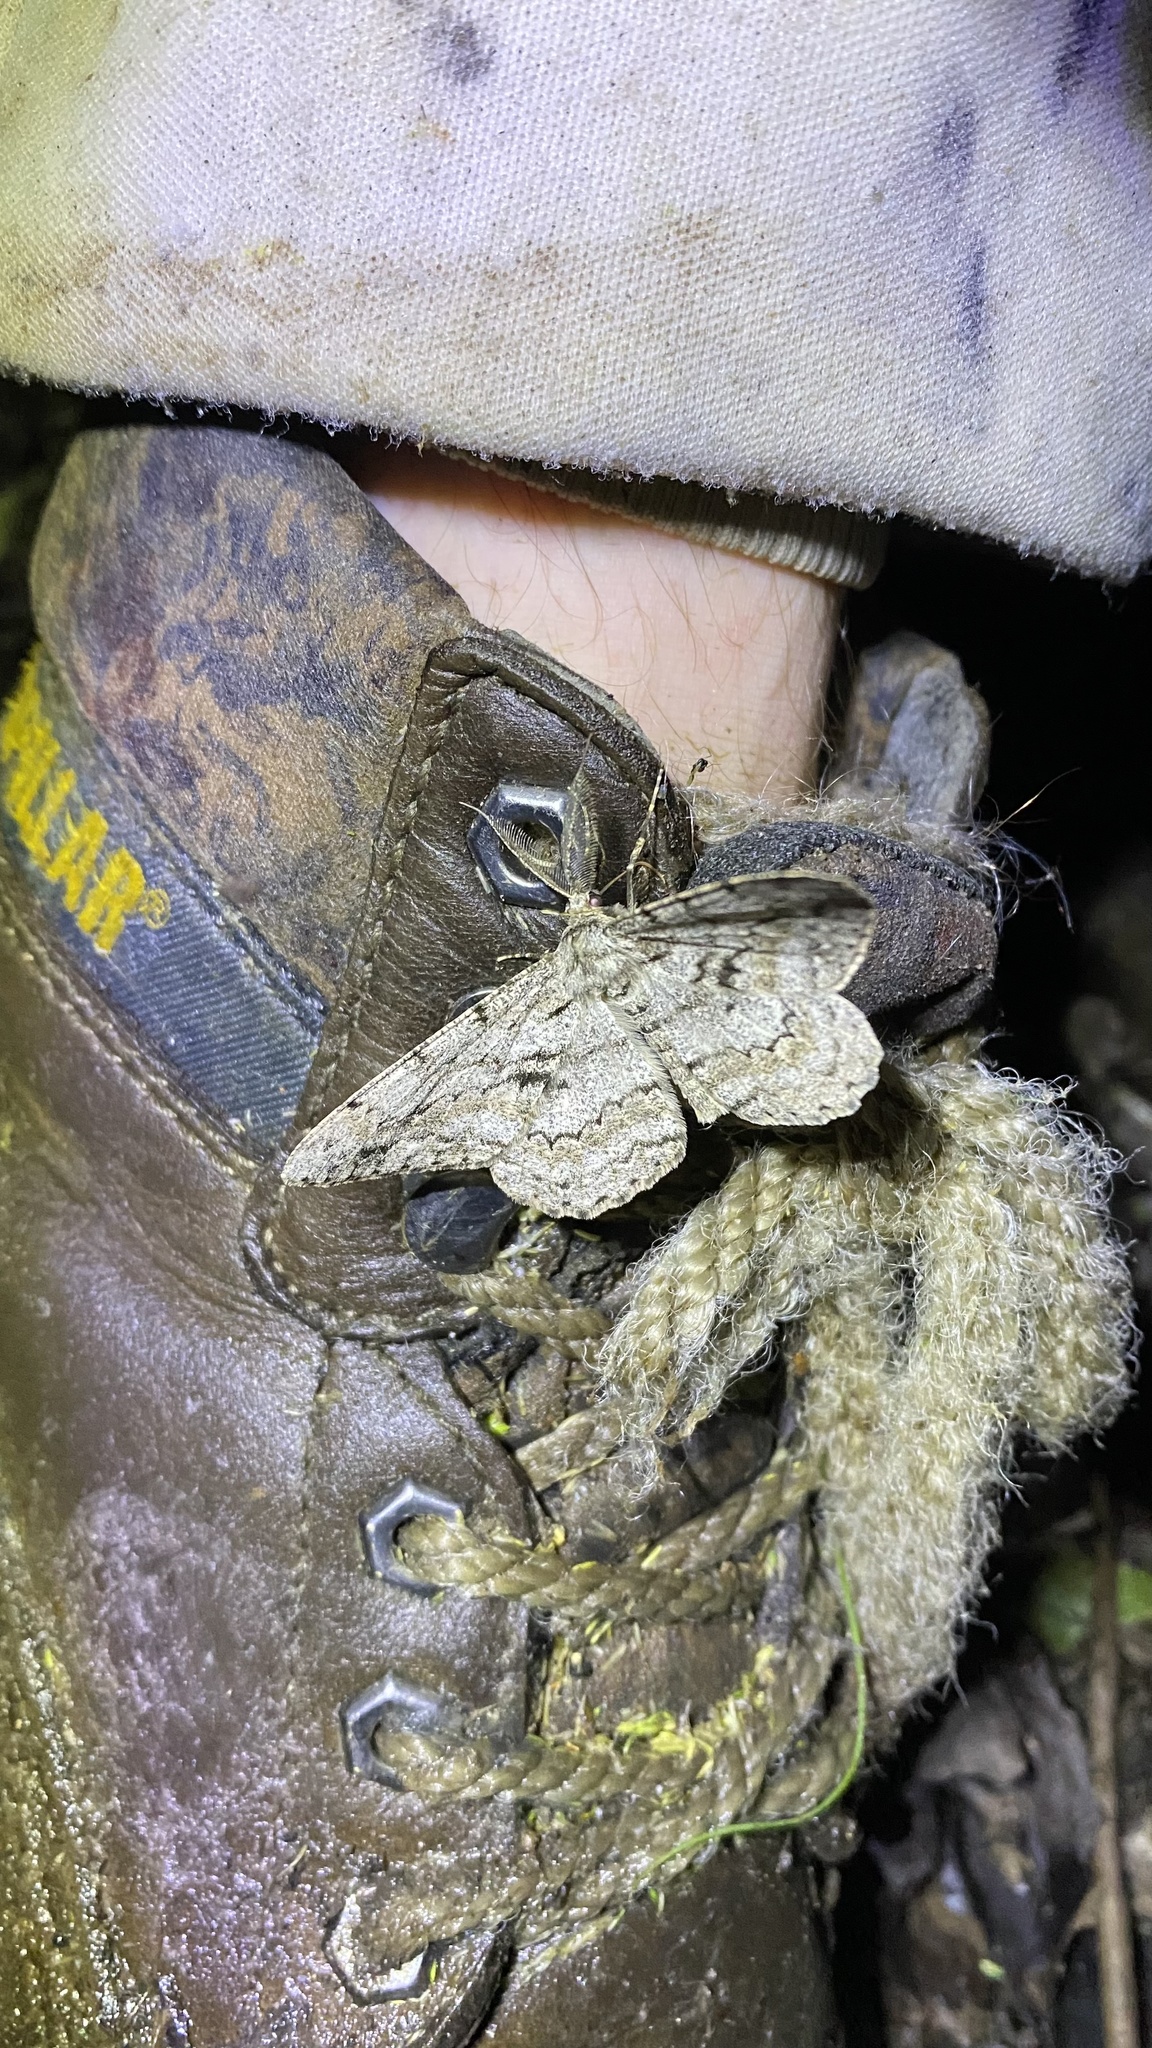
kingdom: Animalia
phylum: Arthropoda
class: Insecta
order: Lepidoptera
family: Geometridae
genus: Hypomecis
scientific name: Hypomecis roboraria
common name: Great oak beauty
